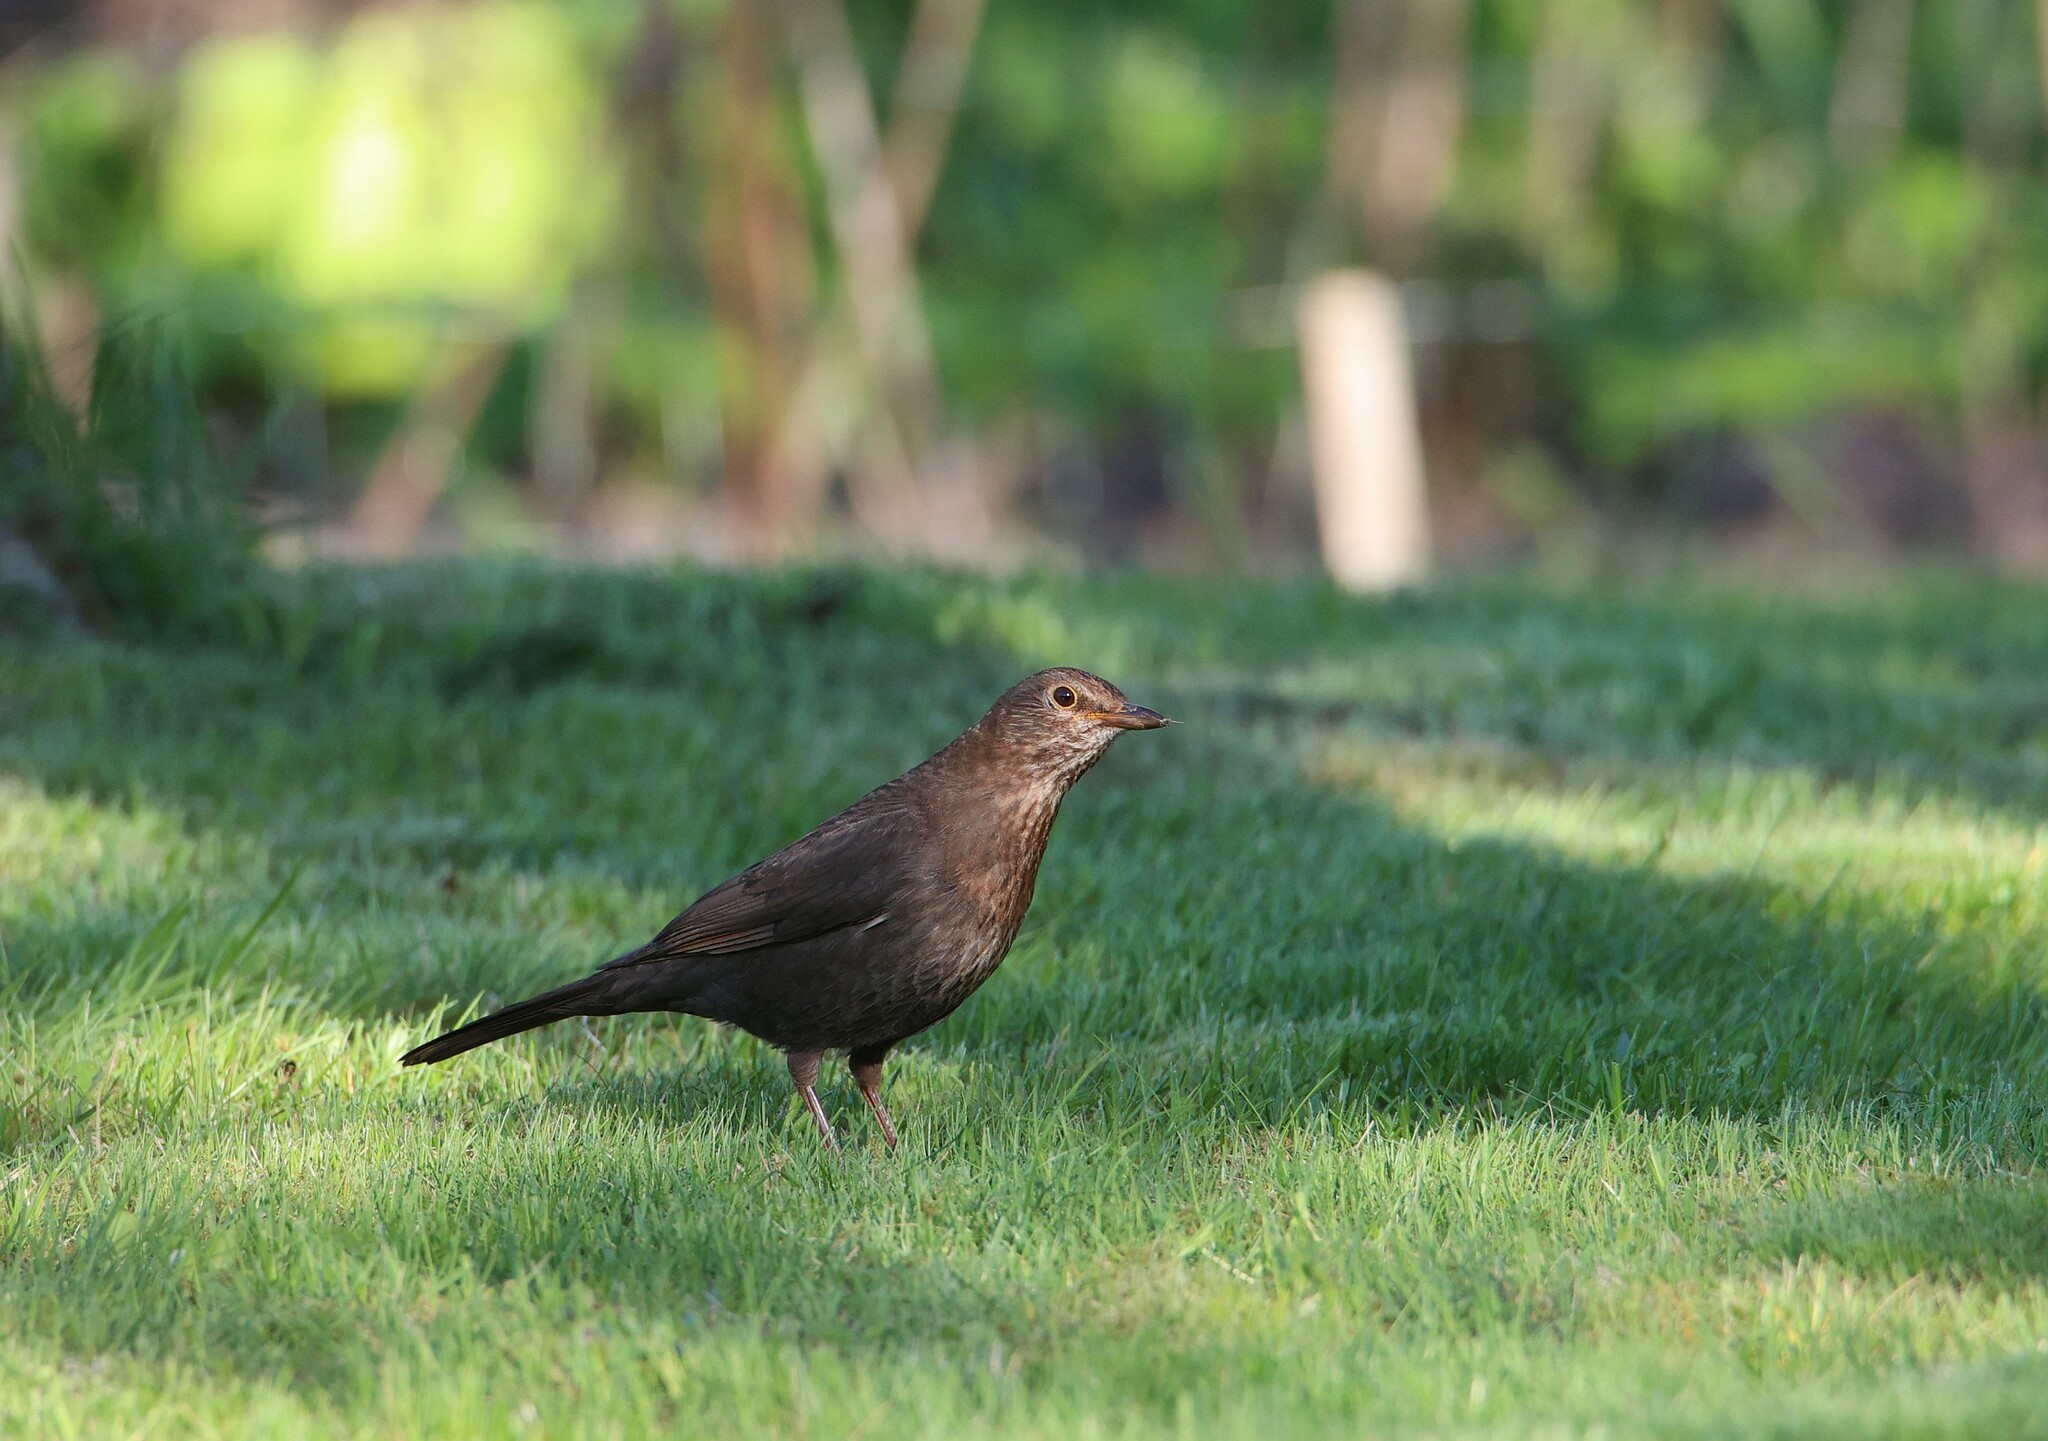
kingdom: Animalia
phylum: Chordata
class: Aves
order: Passeriformes
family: Turdidae
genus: Turdus
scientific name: Turdus merula
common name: Common blackbird
